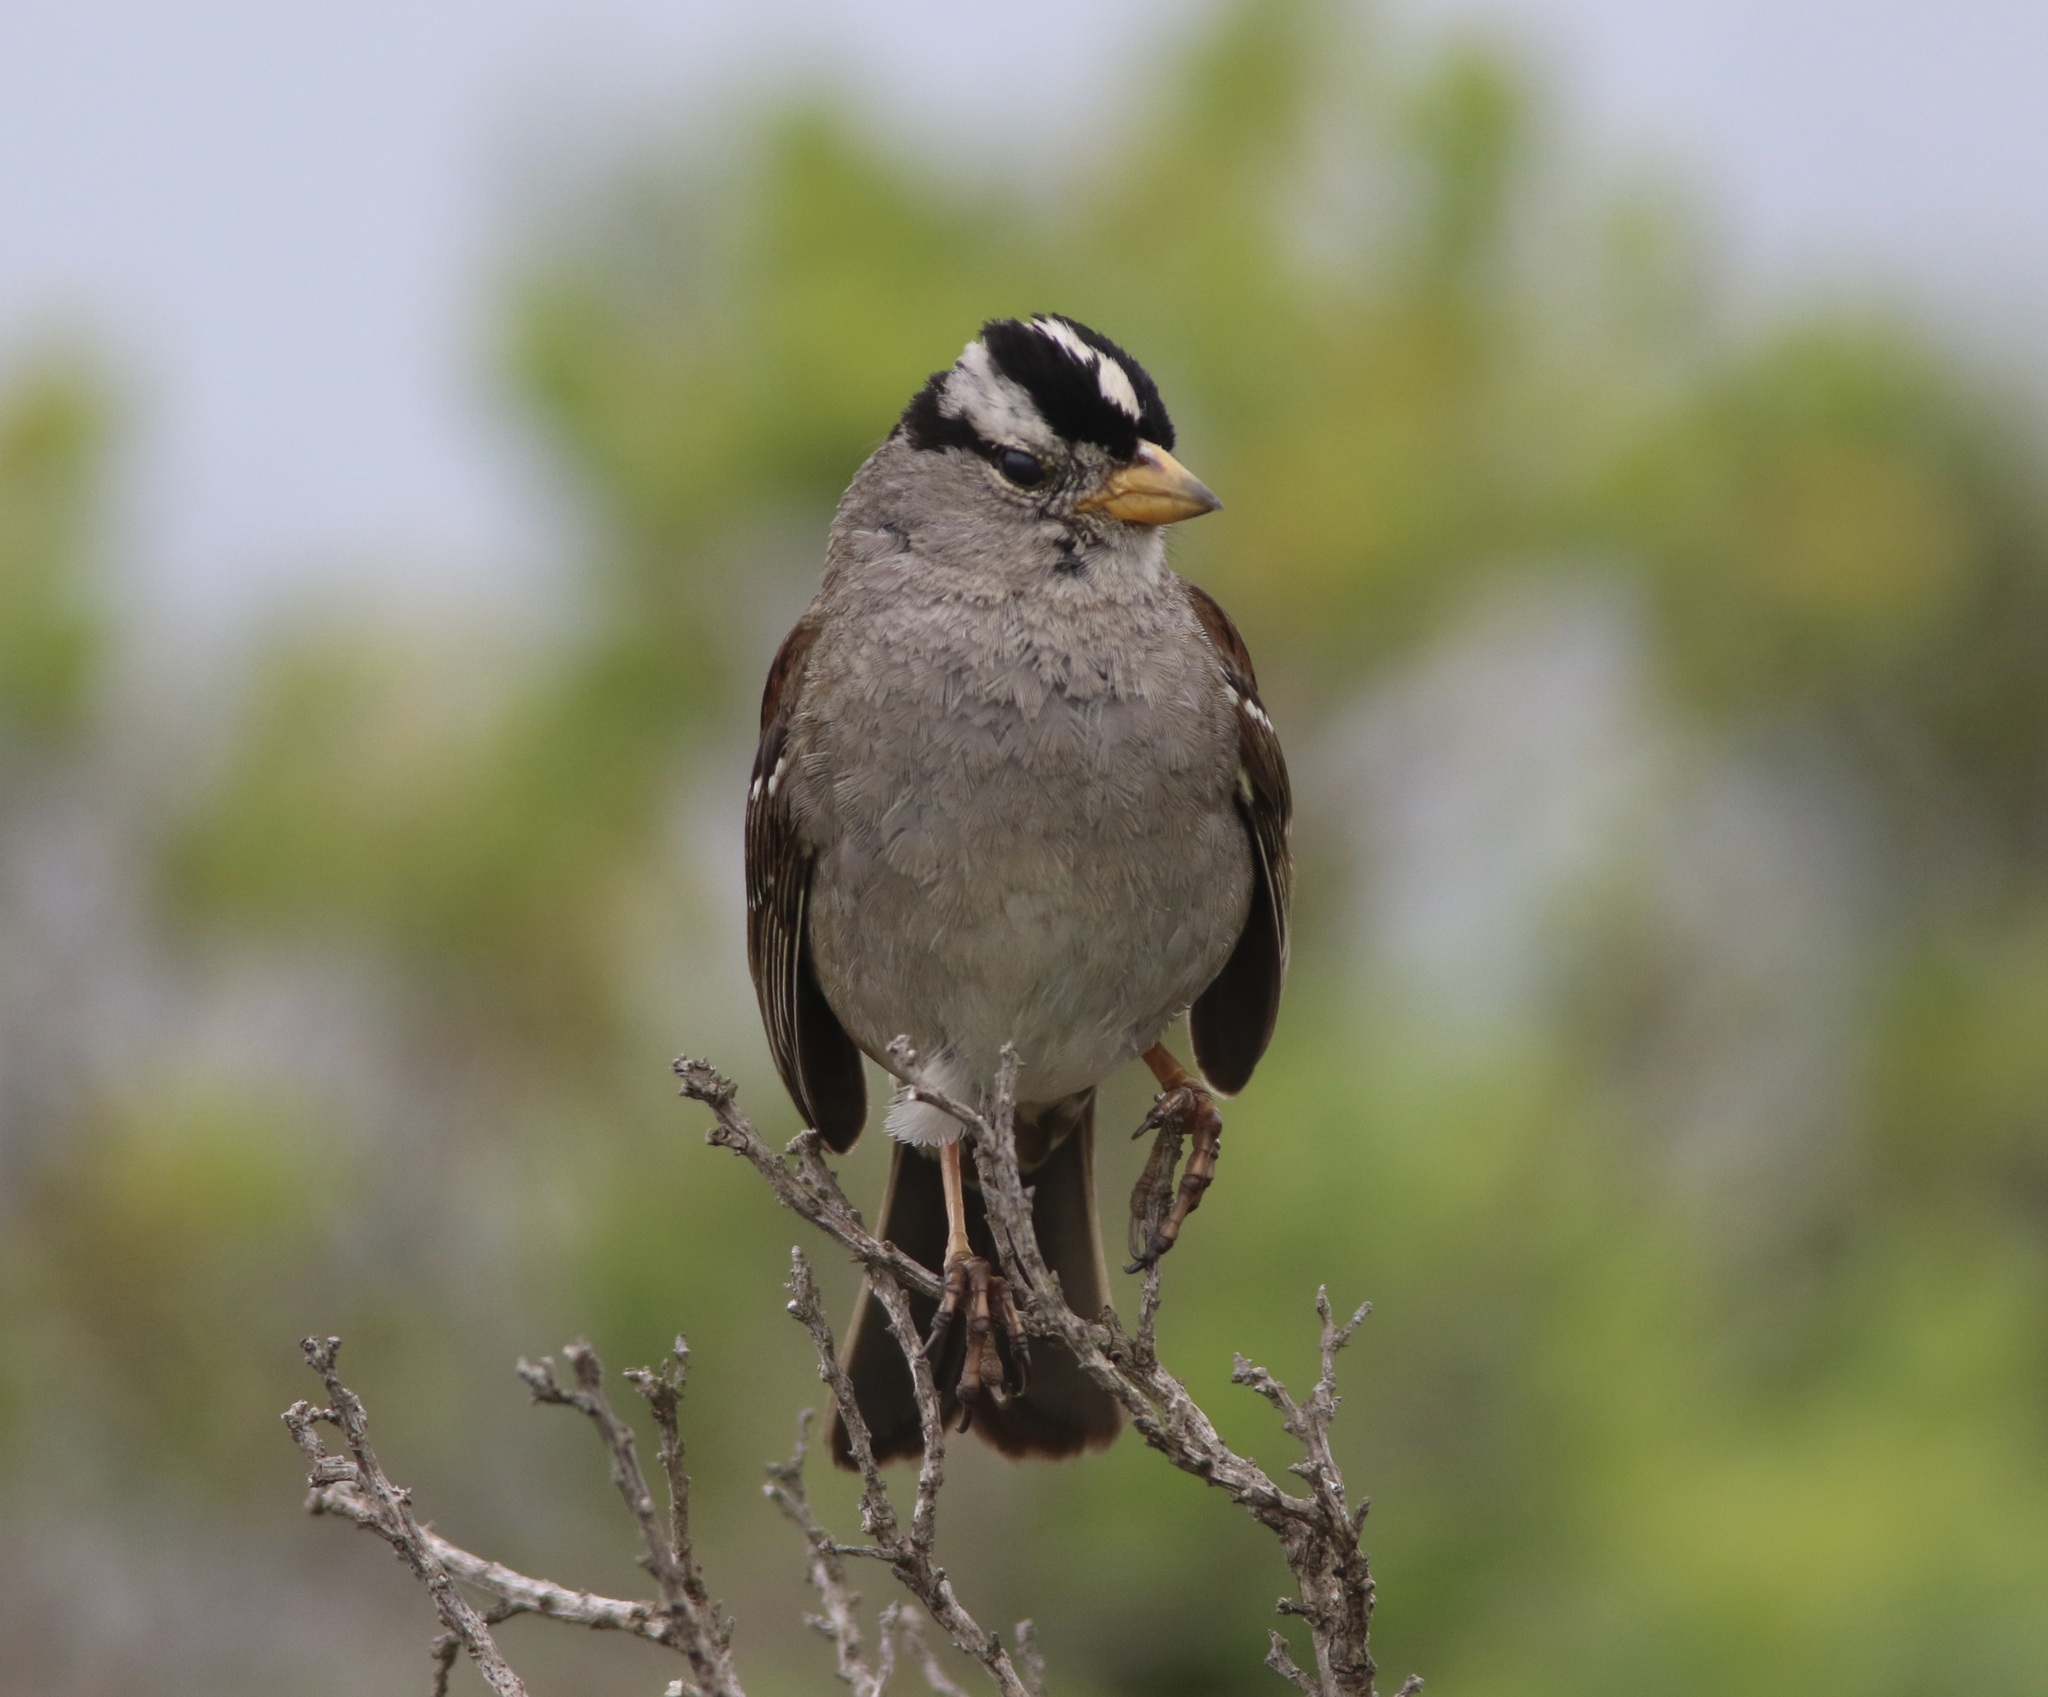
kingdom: Animalia
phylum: Chordata
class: Aves
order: Passeriformes
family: Passerellidae
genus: Zonotrichia
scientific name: Zonotrichia leucophrys
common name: White-crowned sparrow
